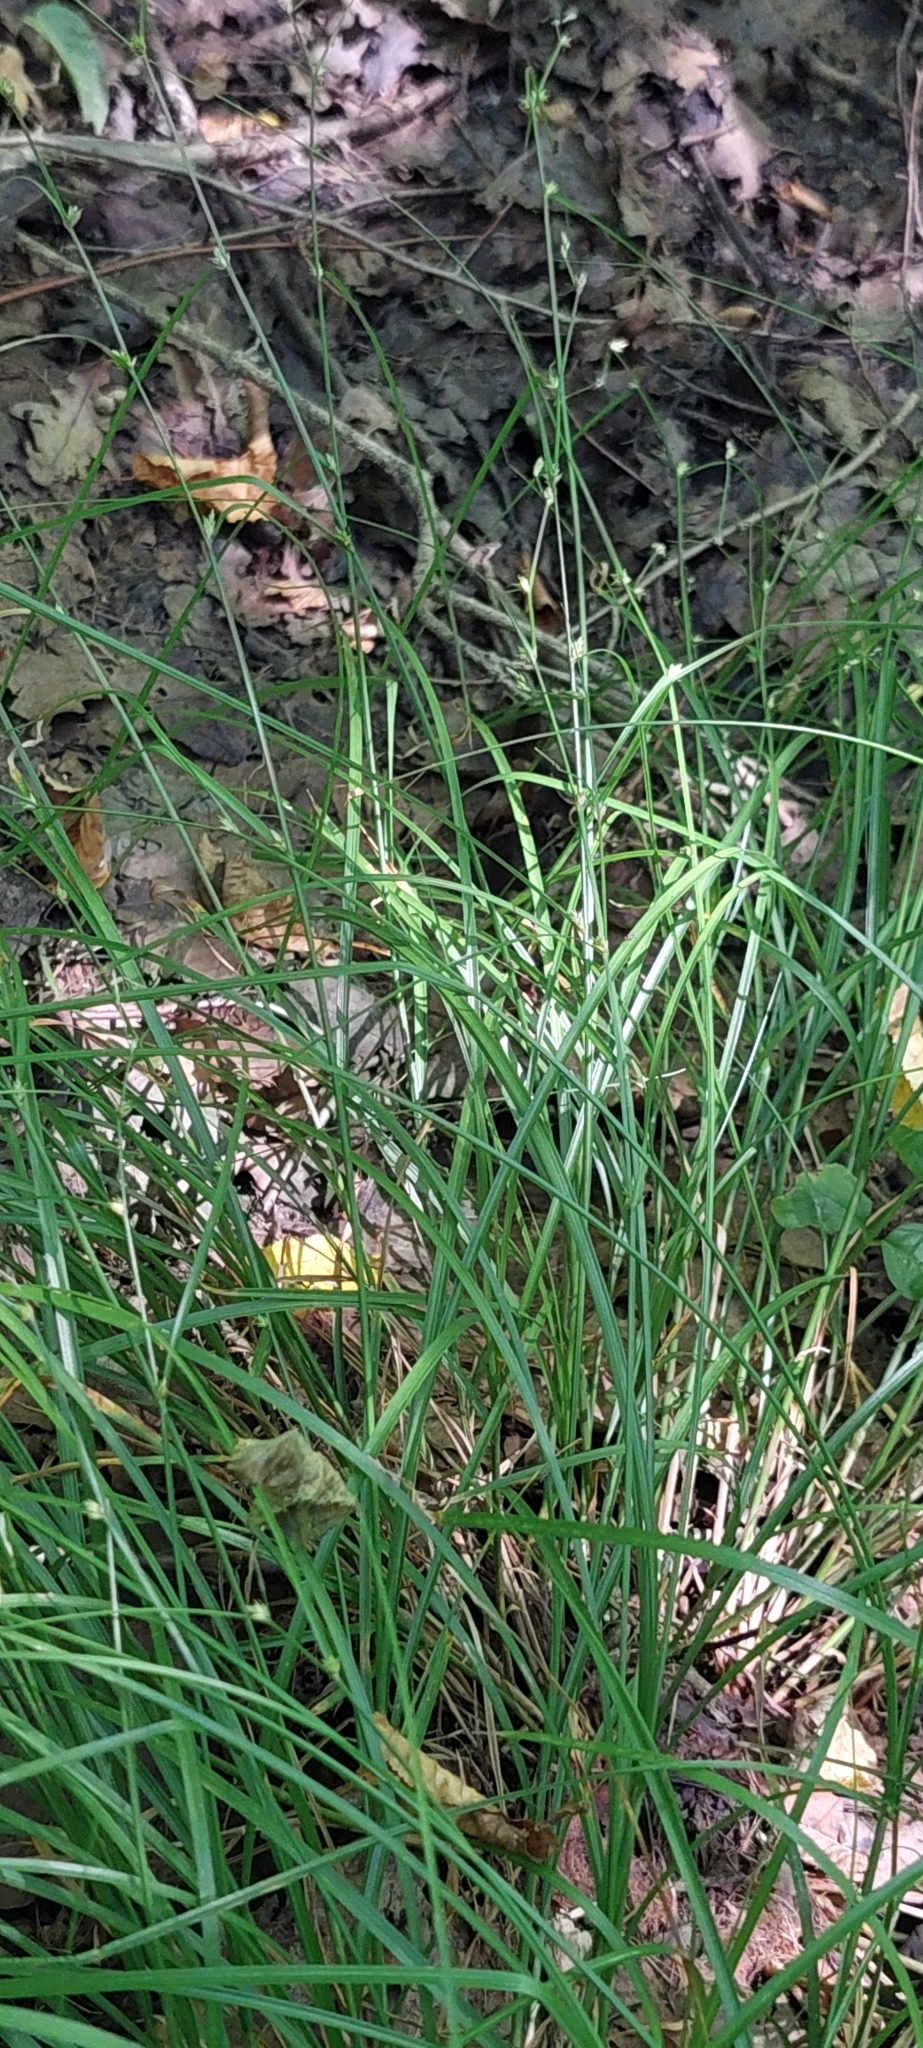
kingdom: Plantae
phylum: Tracheophyta
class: Liliopsida
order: Poales
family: Cyperaceae
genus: Carex
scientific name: Carex remota
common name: Remote sedge
